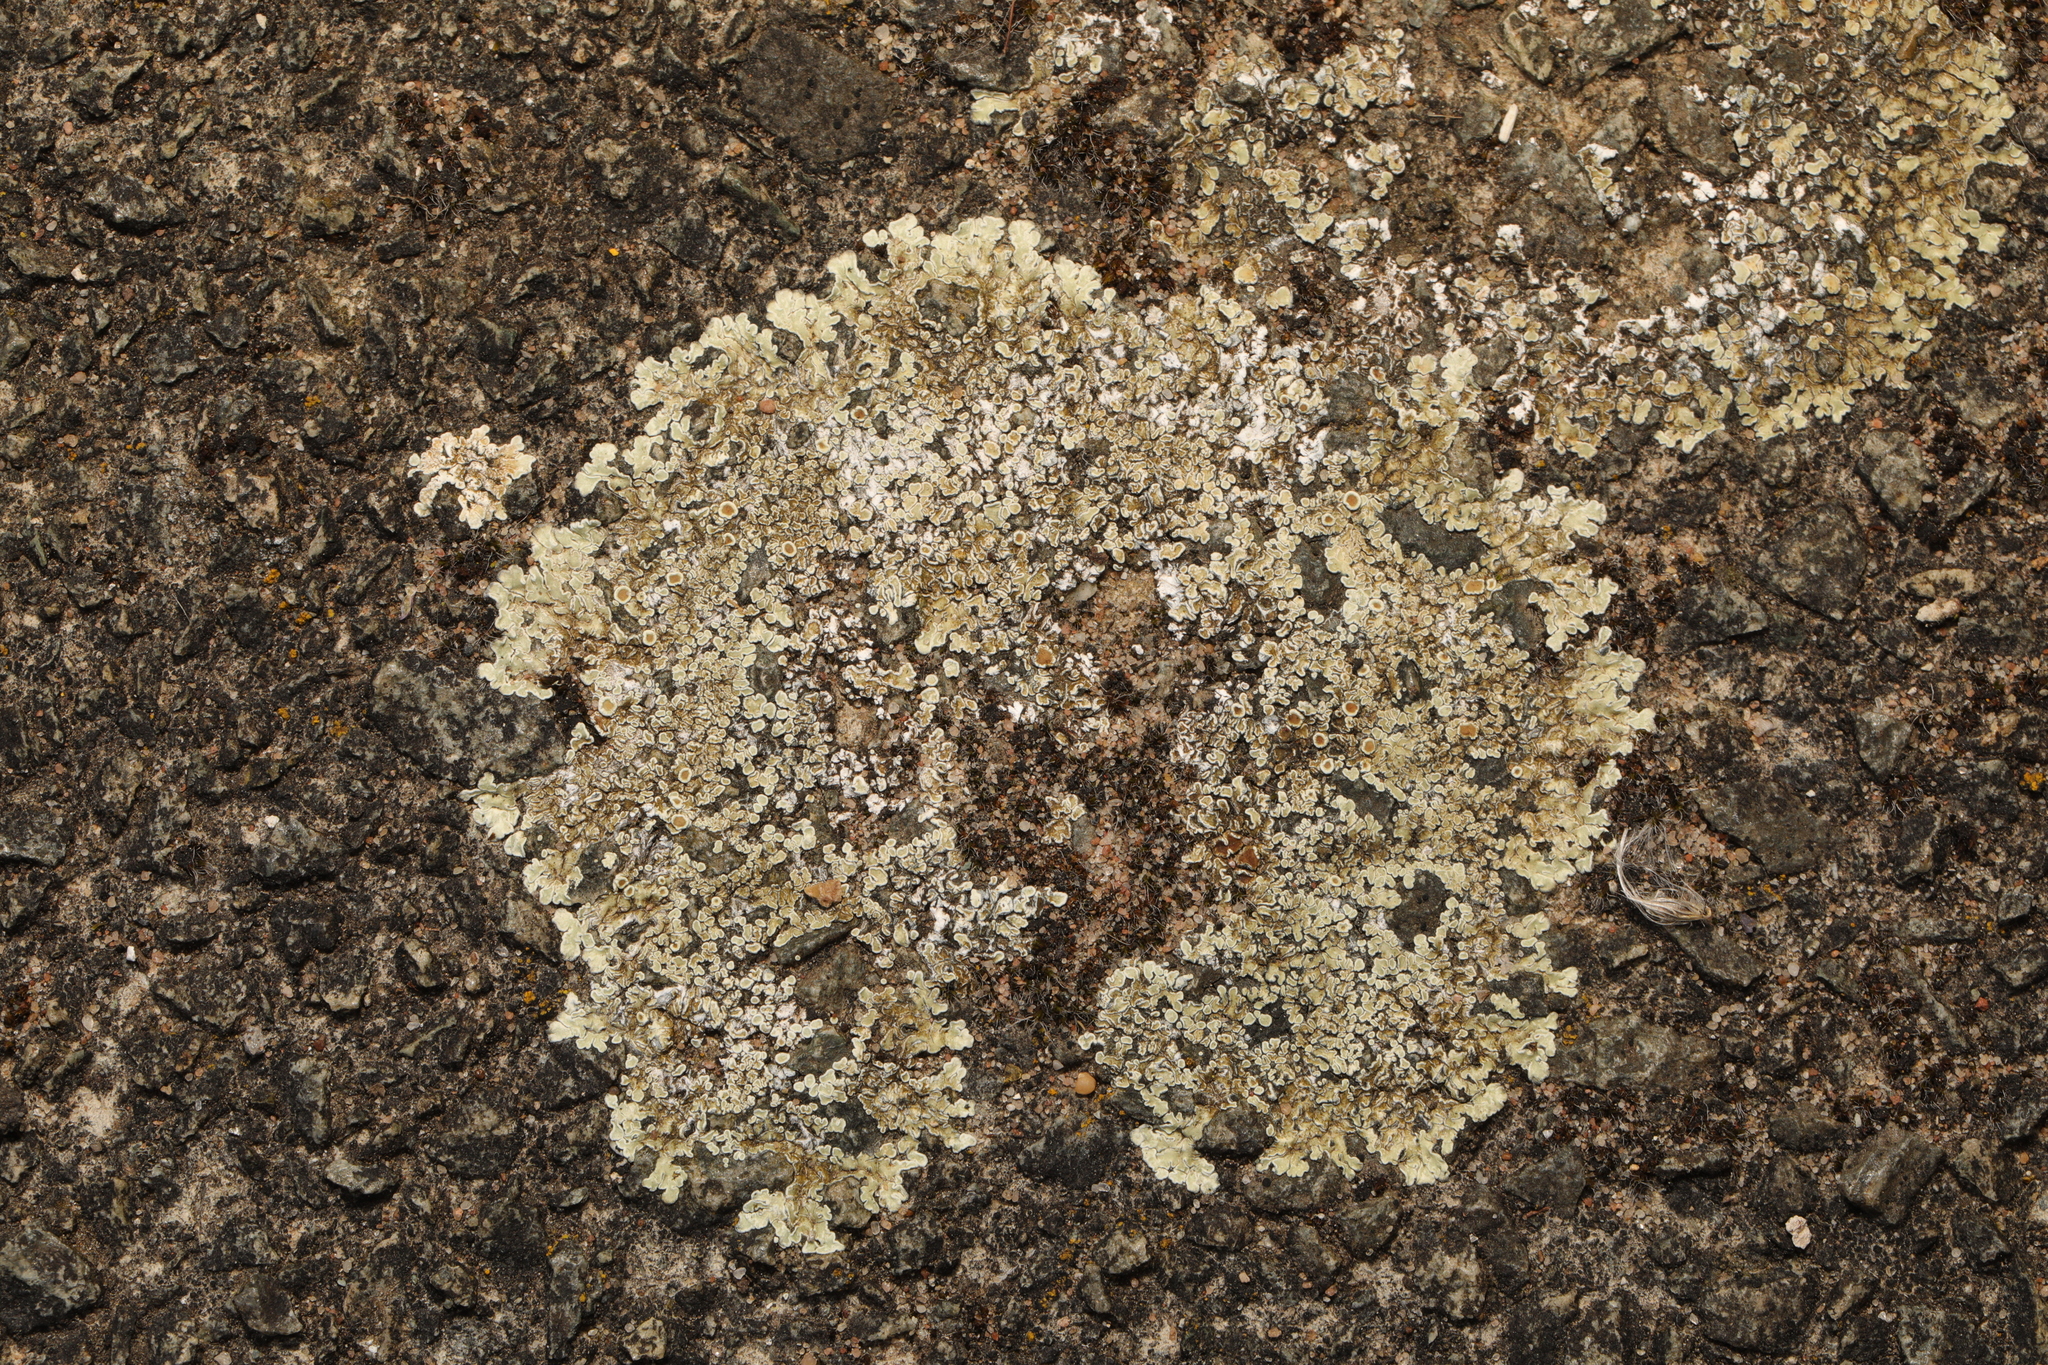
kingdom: Fungi
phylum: Ascomycota
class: Lecanoromycetes
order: Lecanorales
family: Lecanoraceae
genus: Protoparmeliopsis
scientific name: Protoparmeliopsis muralis
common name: Stonewall rim lichen
